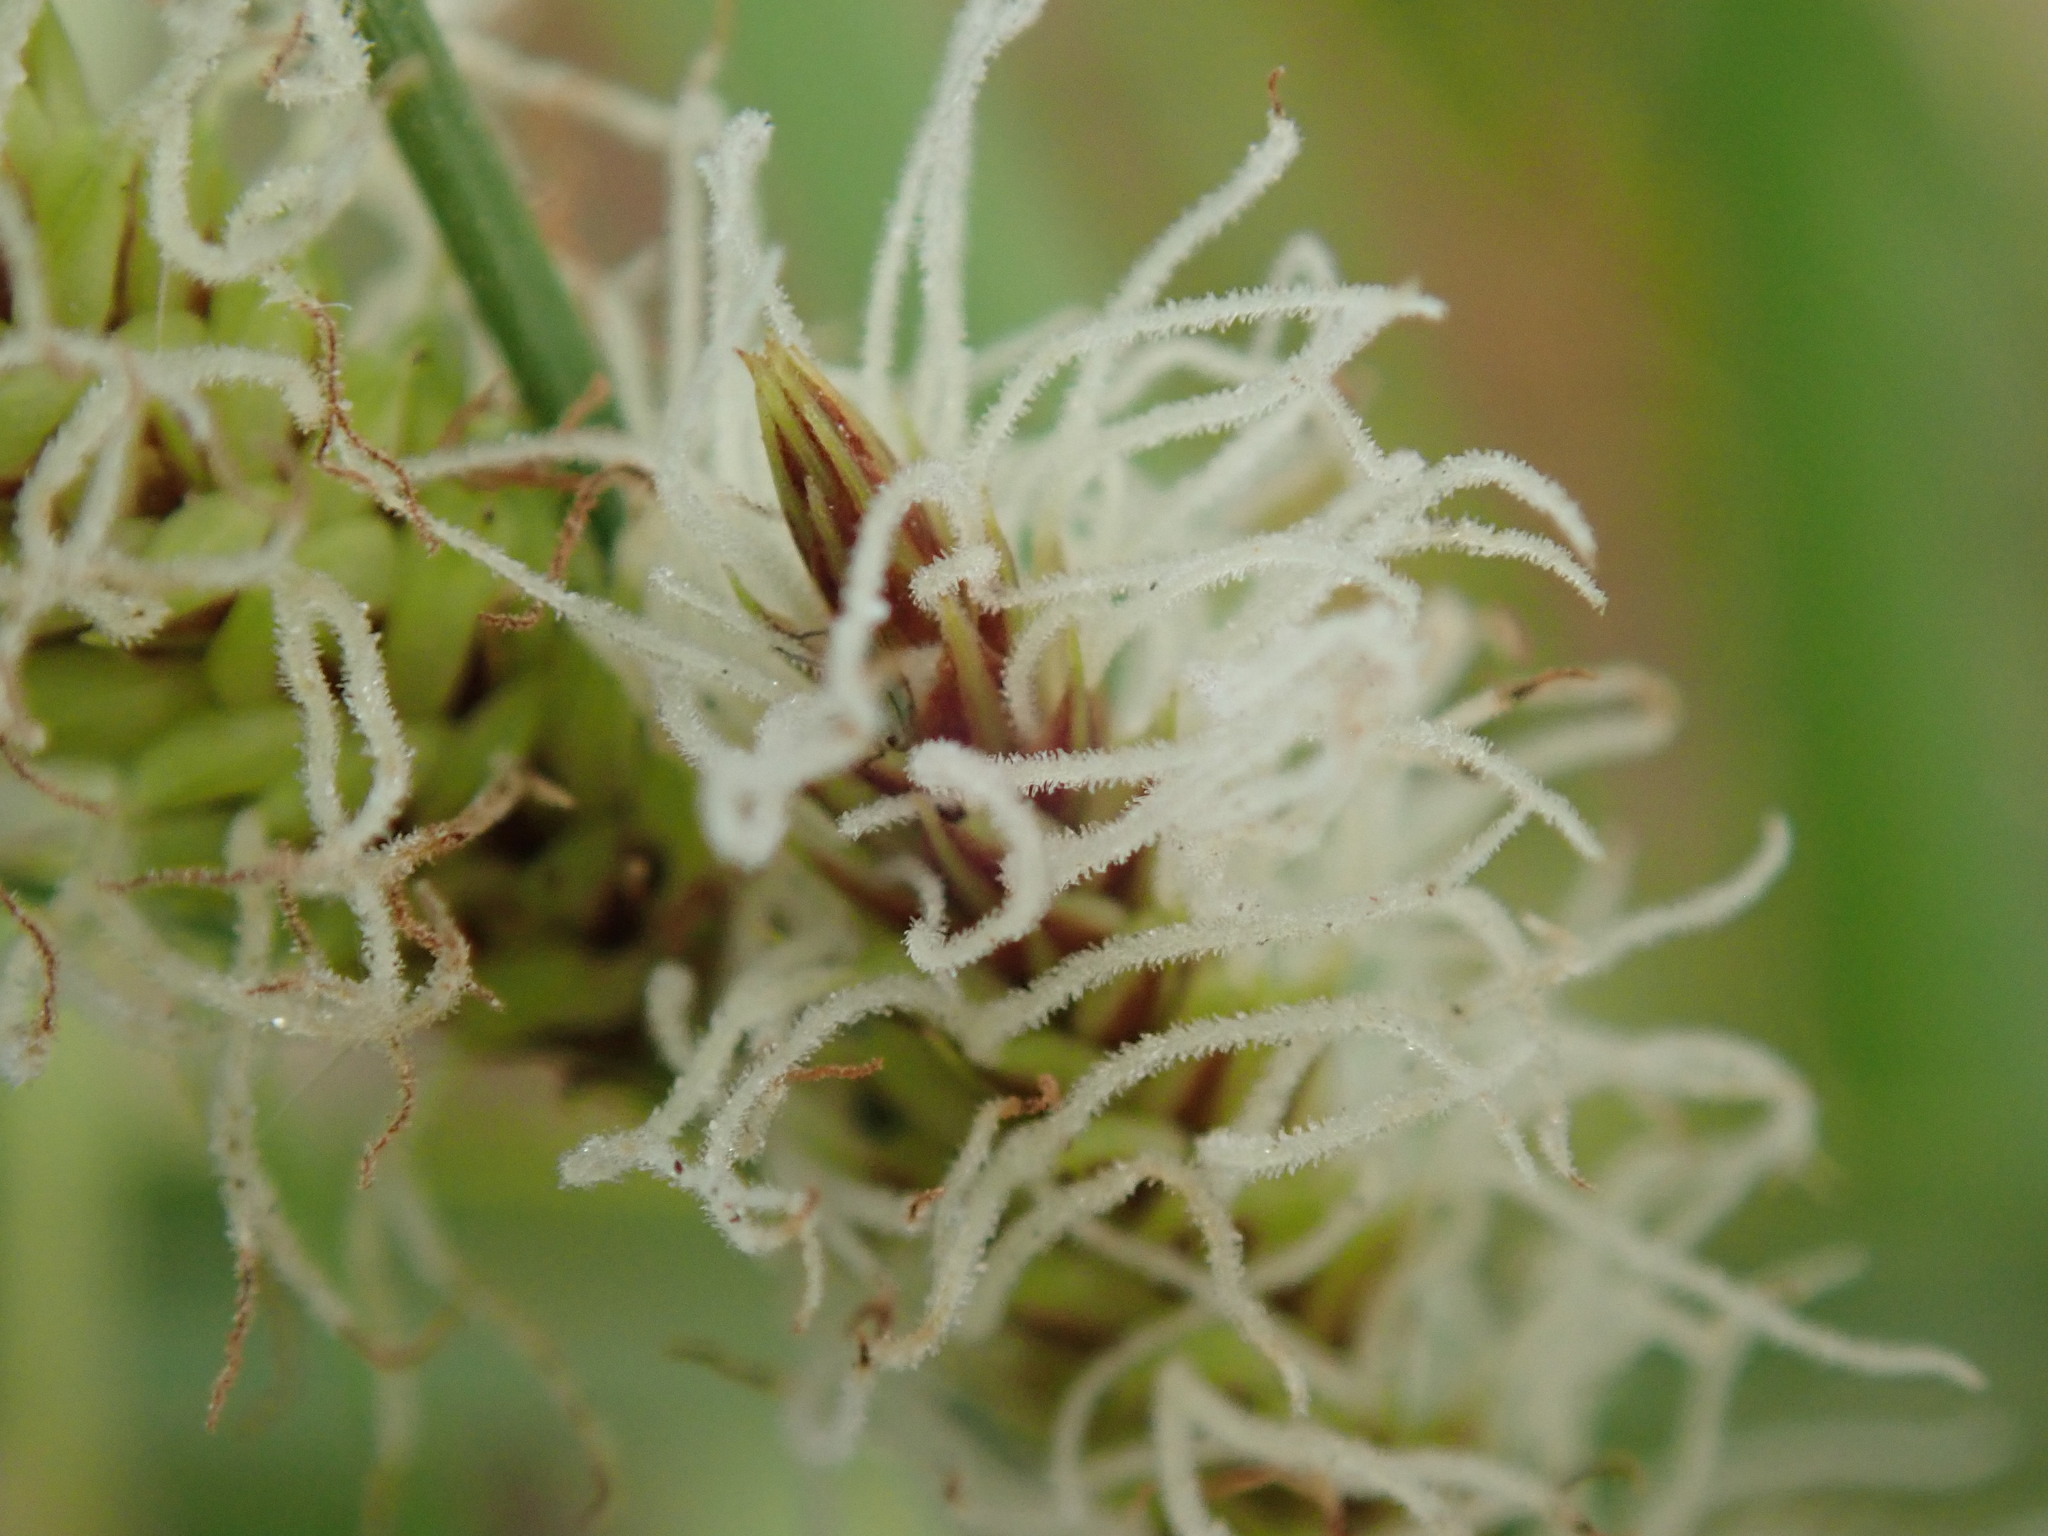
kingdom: Plantae
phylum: Tracheophyta
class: Liliopsida
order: Poales
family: Cyperaceae
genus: Carex
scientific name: Carex barbarae
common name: Santa barbara sedge
